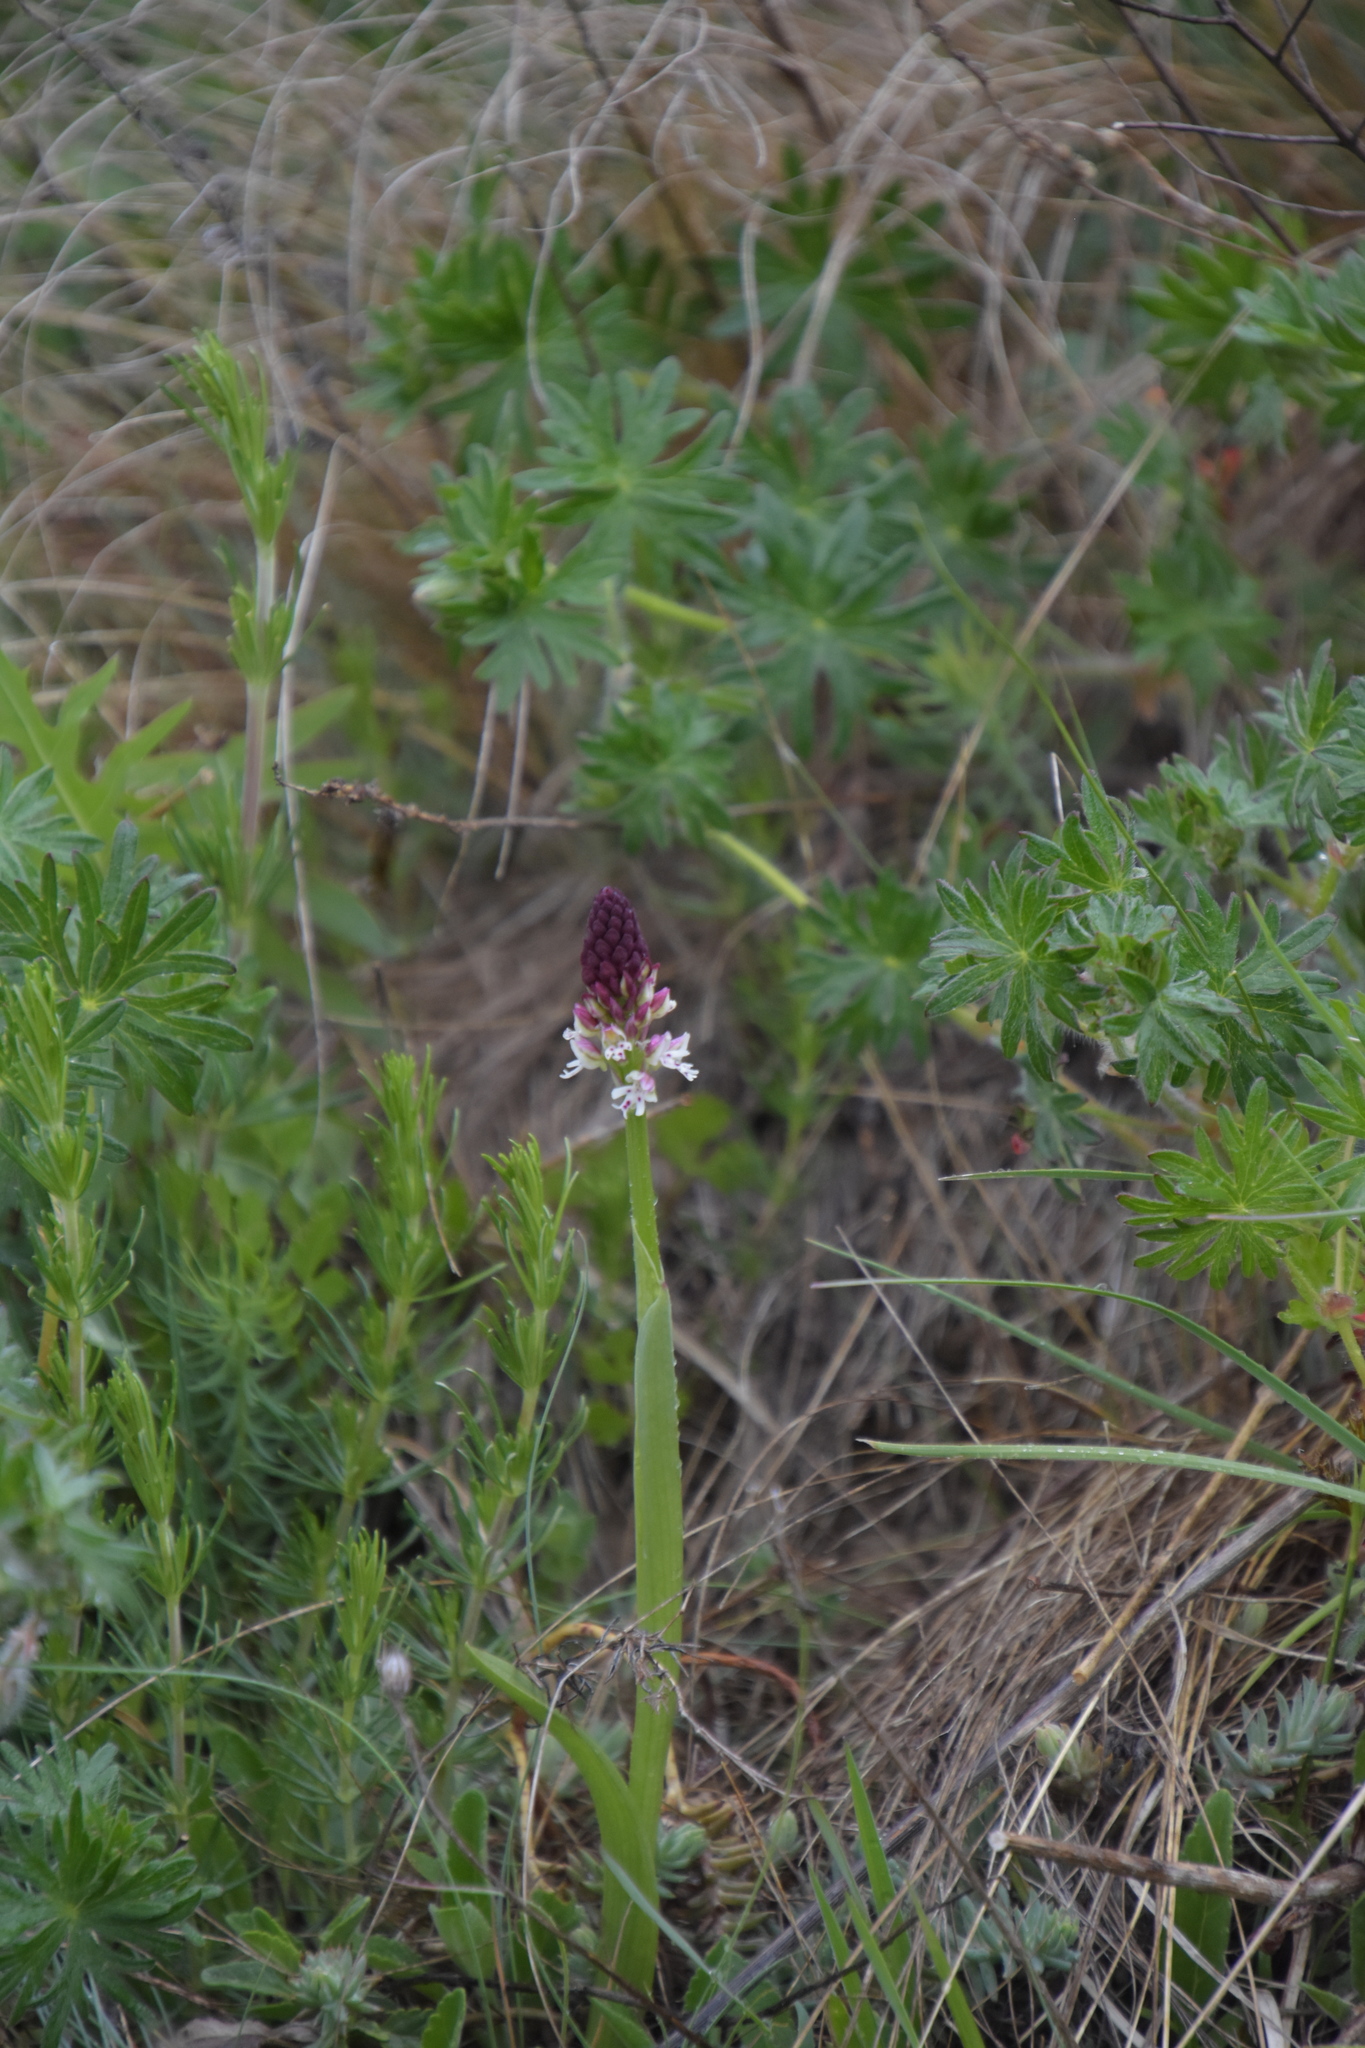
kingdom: Plantae
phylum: Tracheophyta
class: Liliopsida
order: Asparagales
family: Orchidaceae
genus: Neotinea
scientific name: Neotinea ustulata
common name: Burnt orchid
